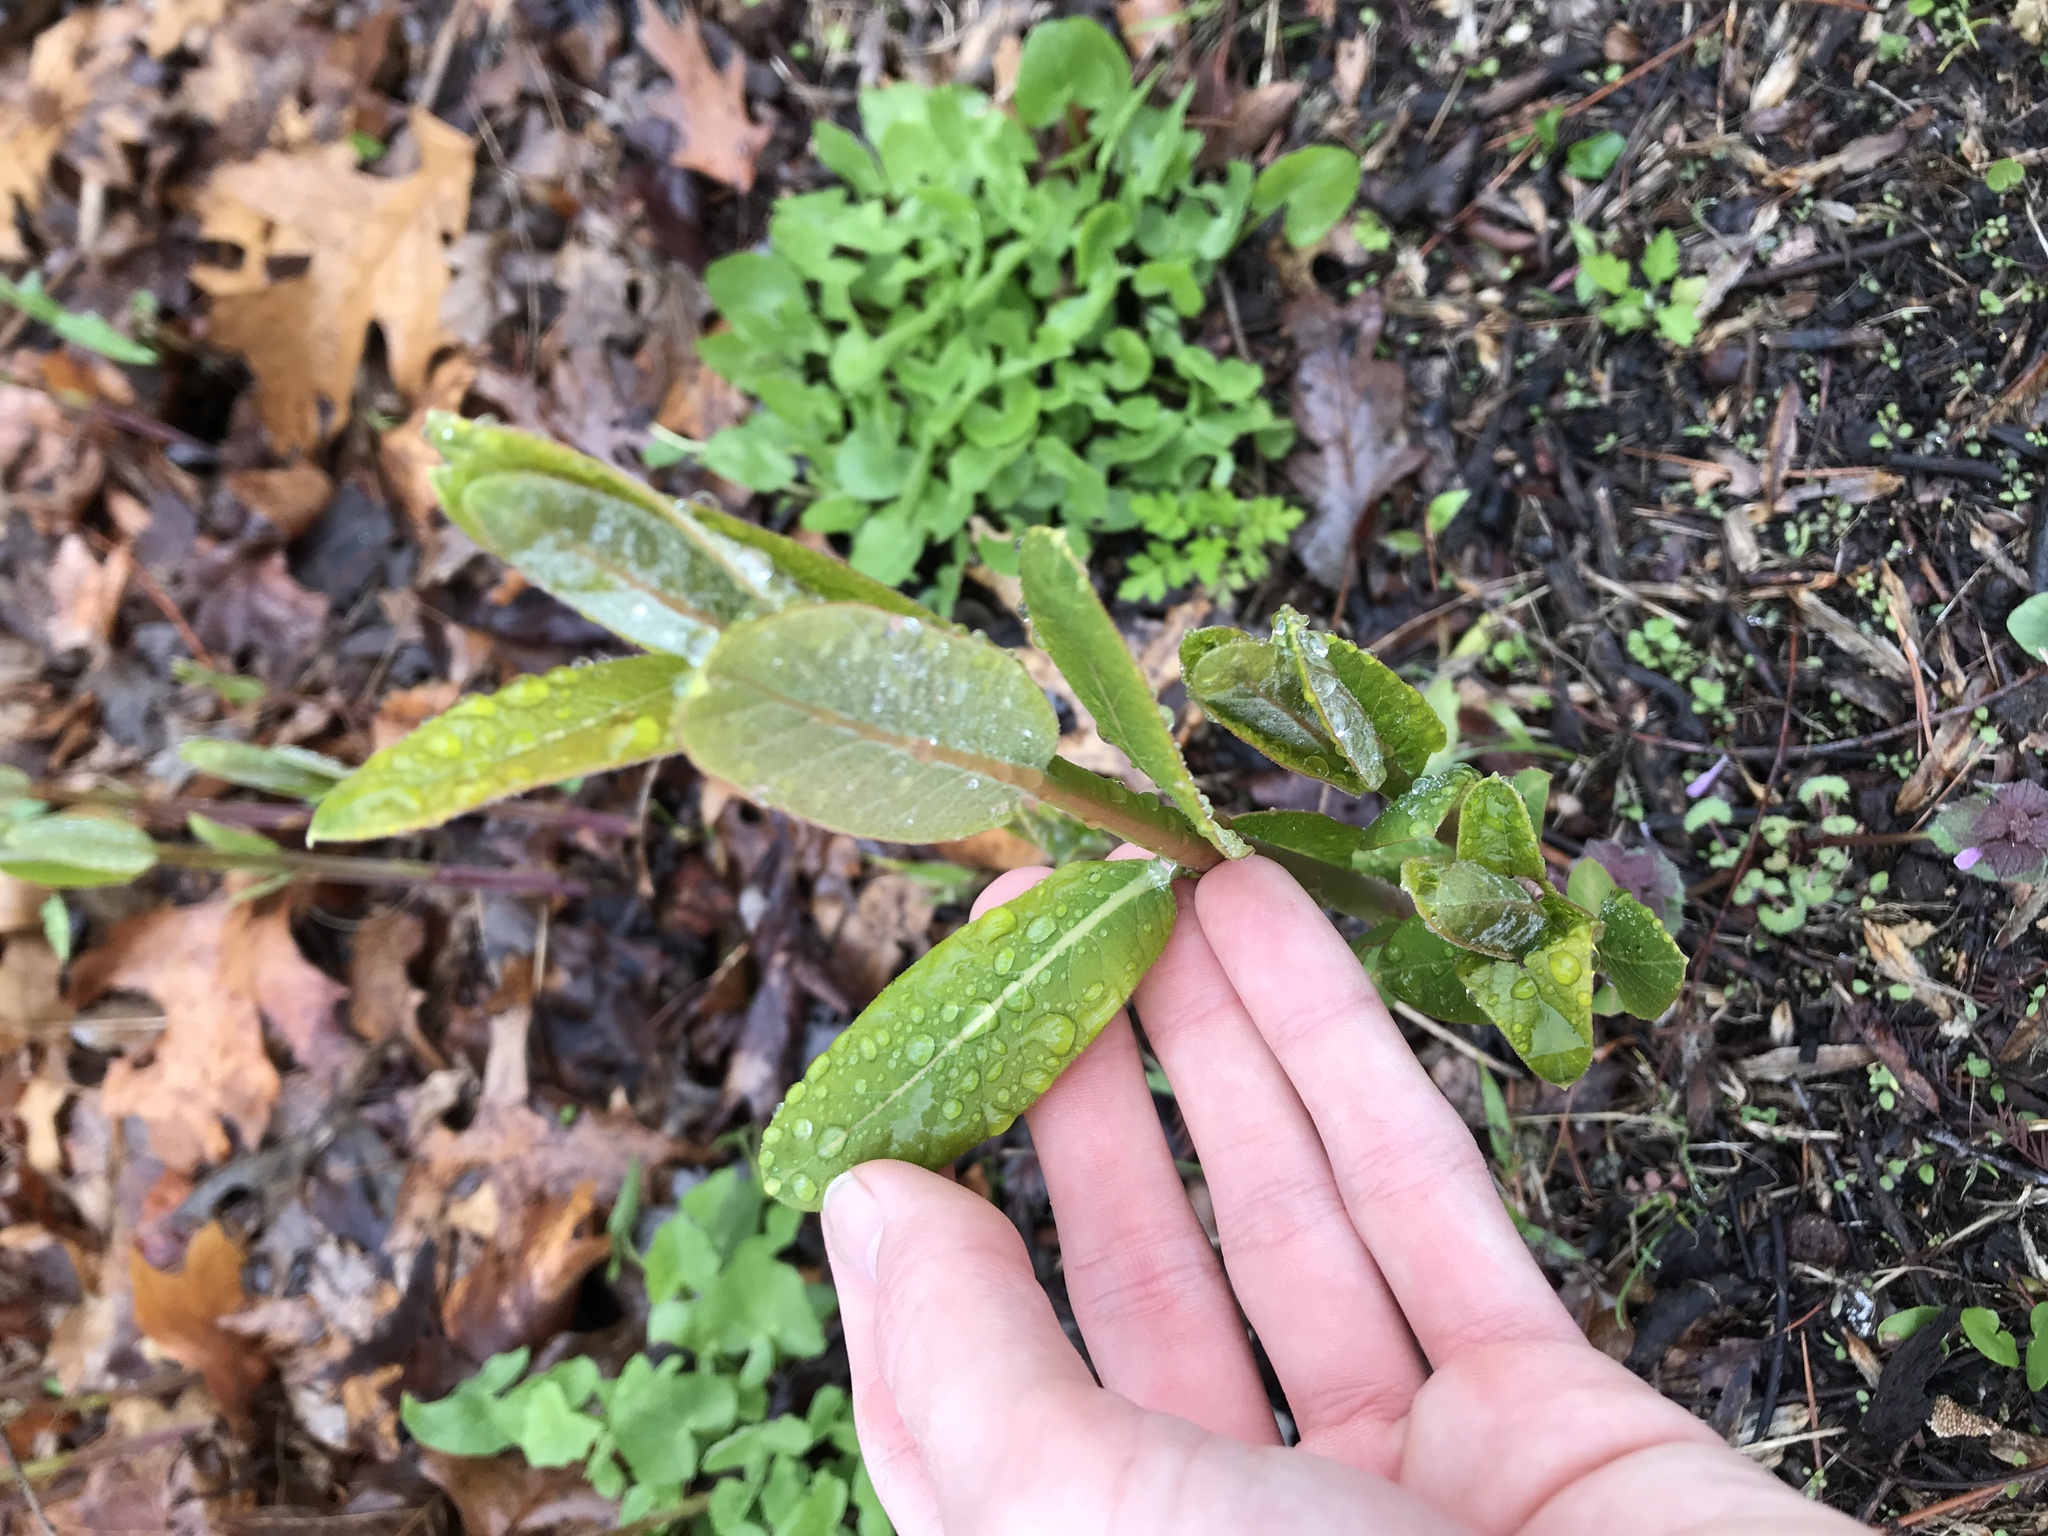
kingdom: Plantae
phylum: Tracheophyta
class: Magnoliopsida
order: Gentianales
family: Apocynaceae
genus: Asclepias
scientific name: Asclepias syriaca
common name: Common milkweed
